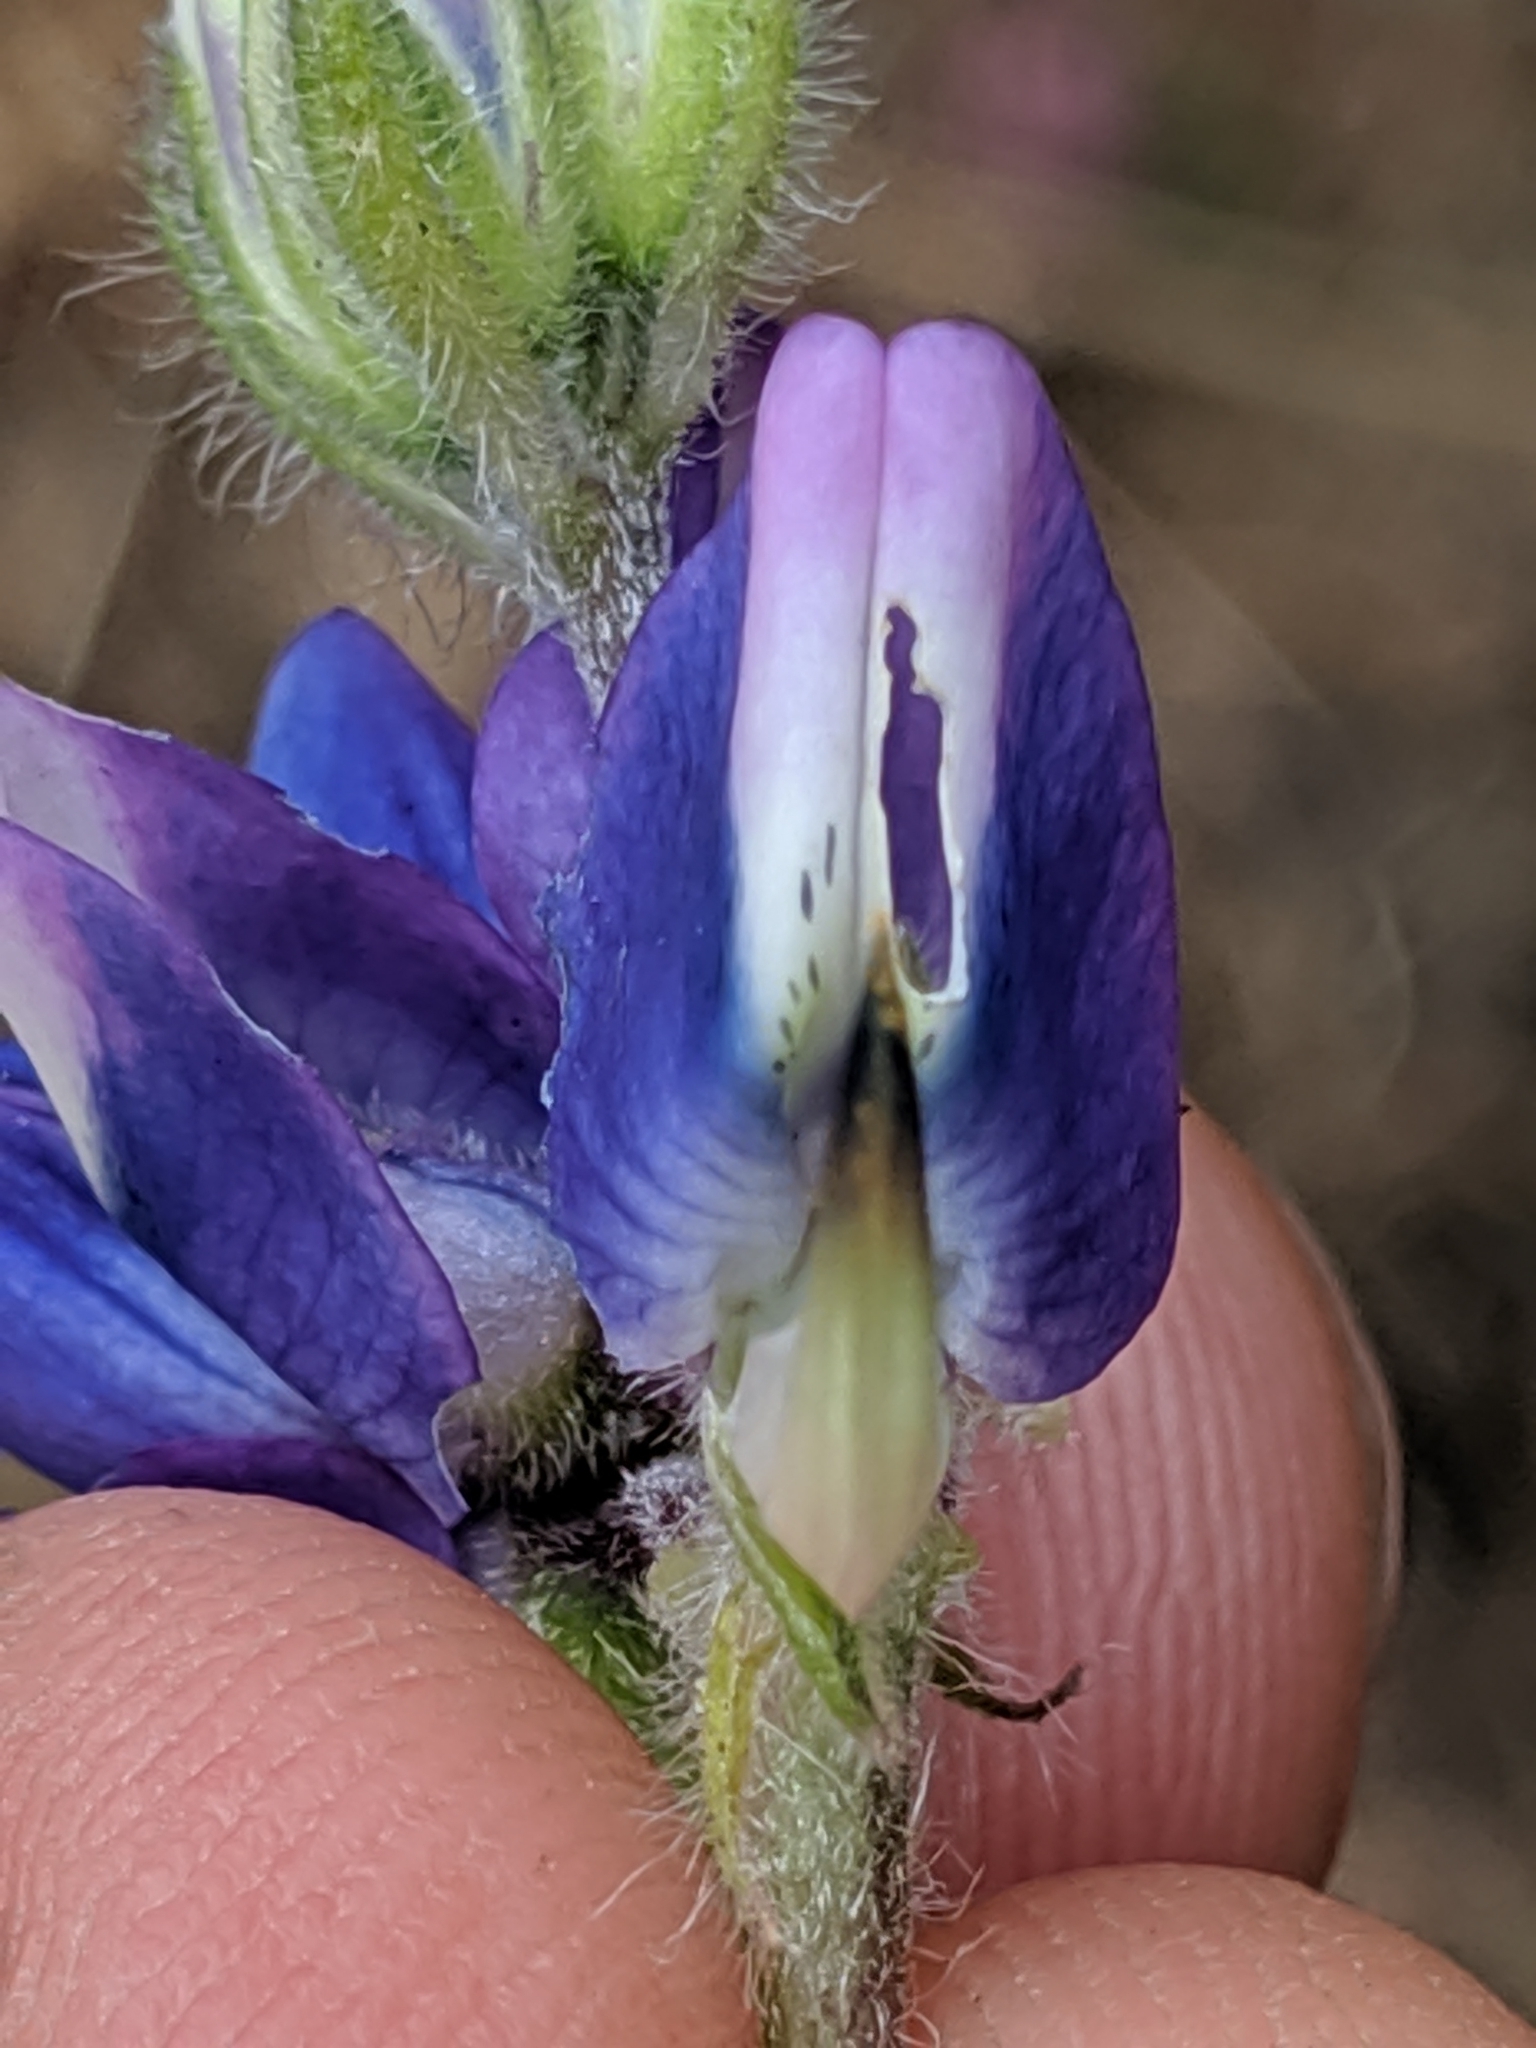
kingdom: Plantae
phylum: Tracheophyta
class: Magnoliopsida
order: Fabales
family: Fabaceae
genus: Lupinus
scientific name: Lupinus affinis
